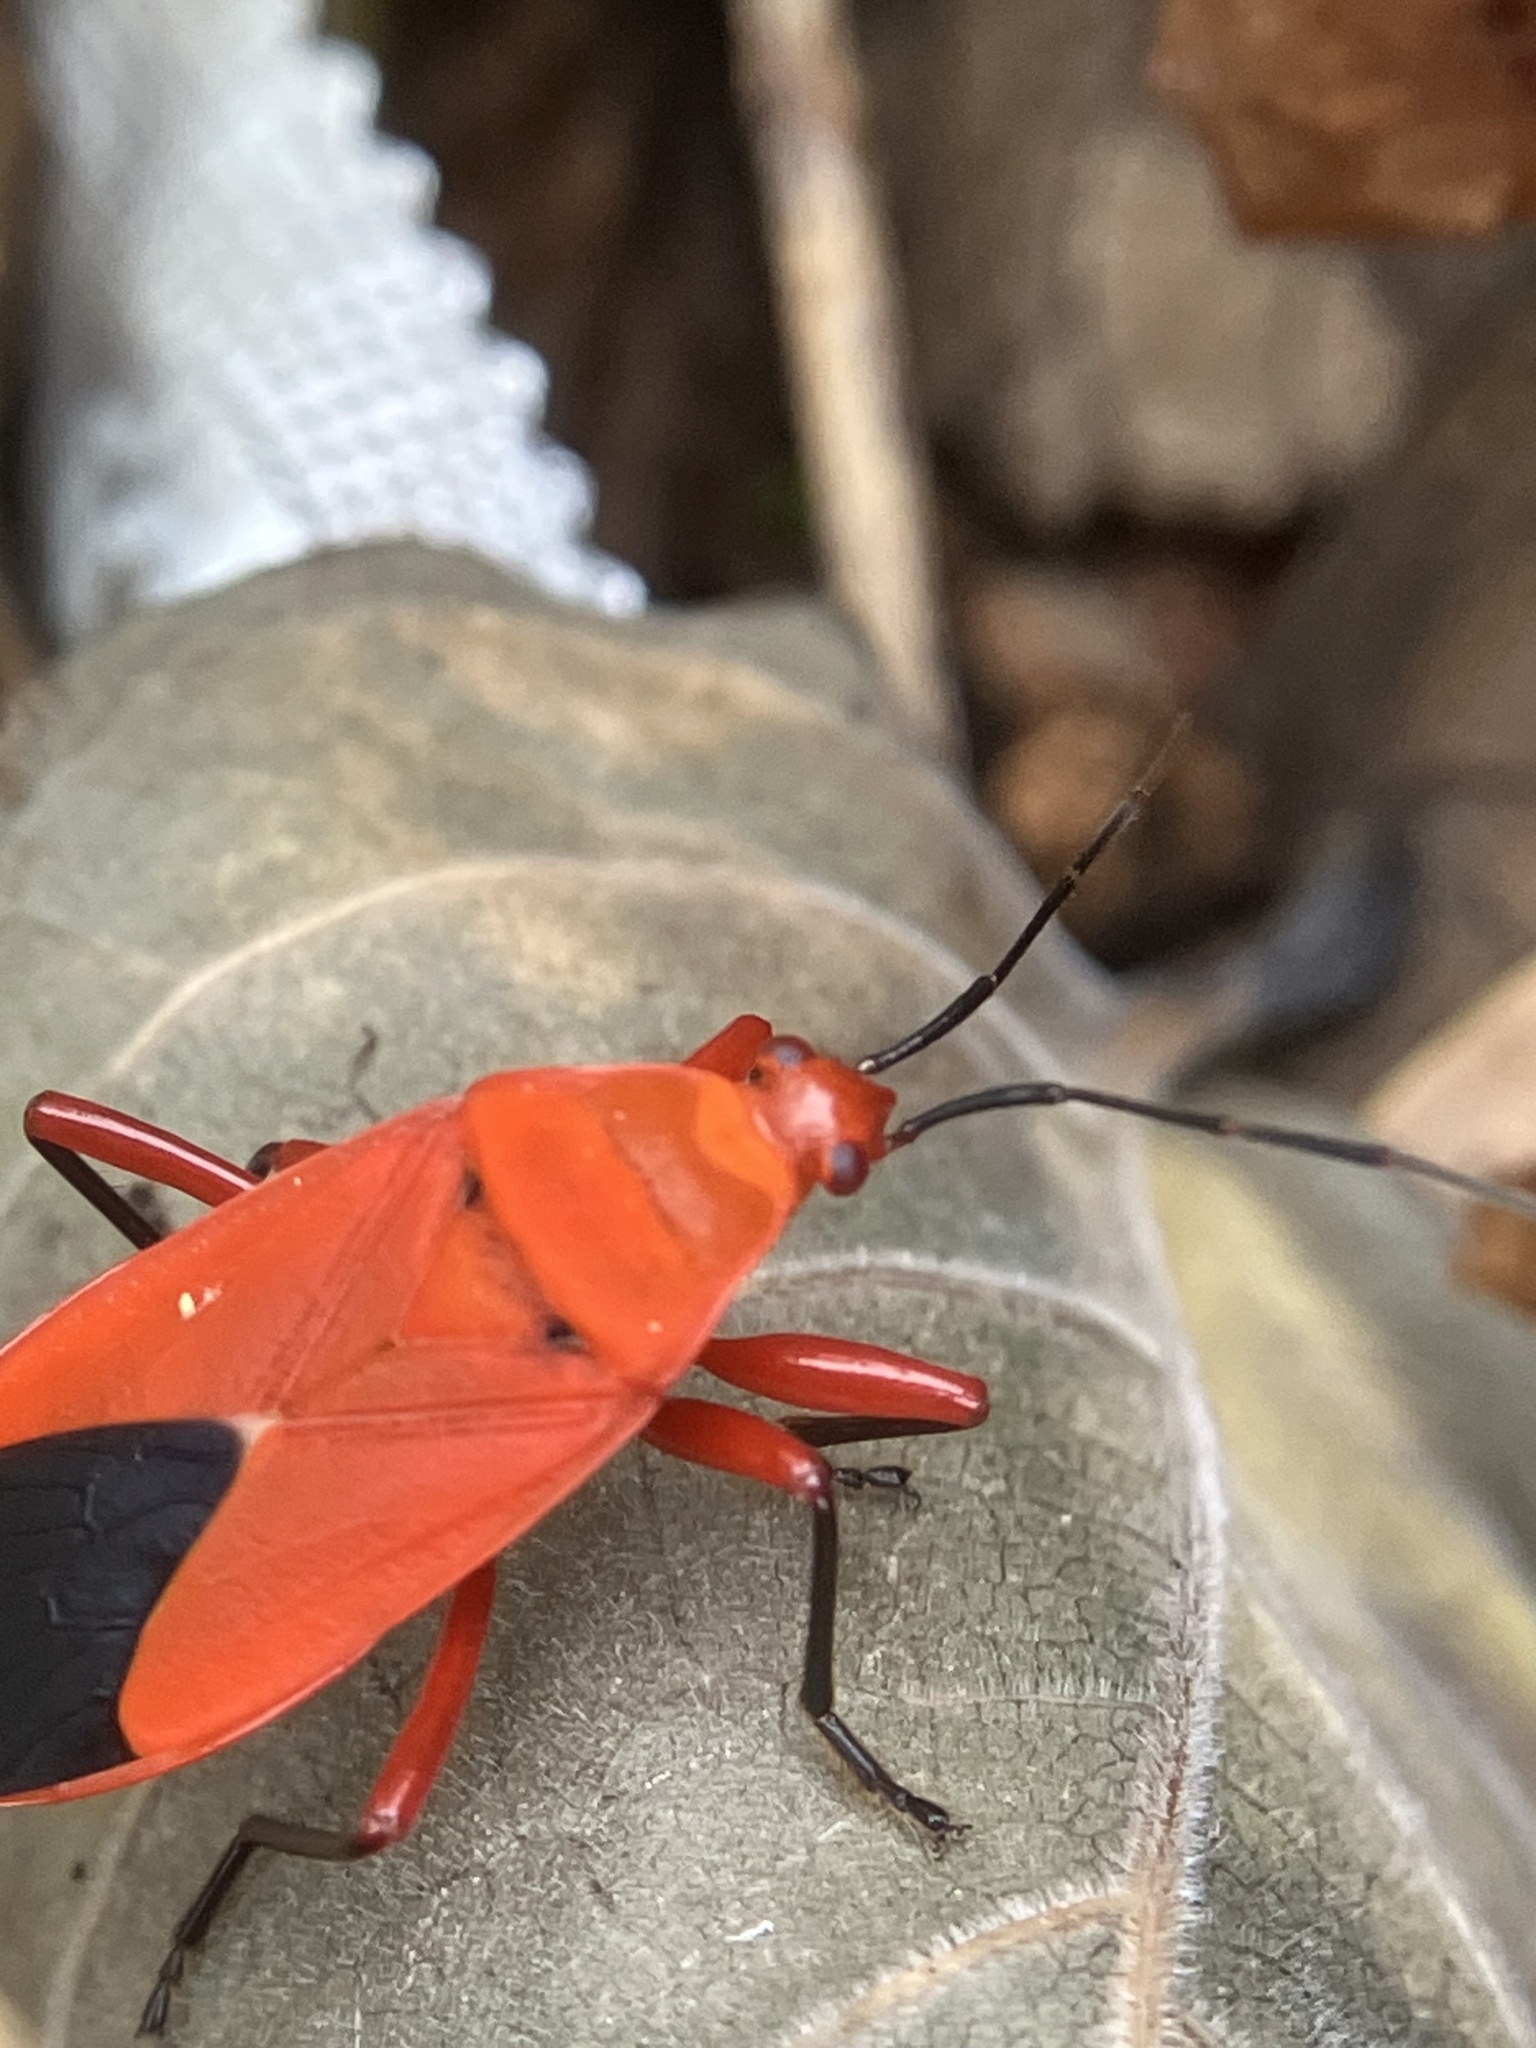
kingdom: Animalia
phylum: Arthropoda
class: Insecta
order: Hemiptera
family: Pyrrhocoridae
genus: Antilochus
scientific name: Antilochus coquebertii
